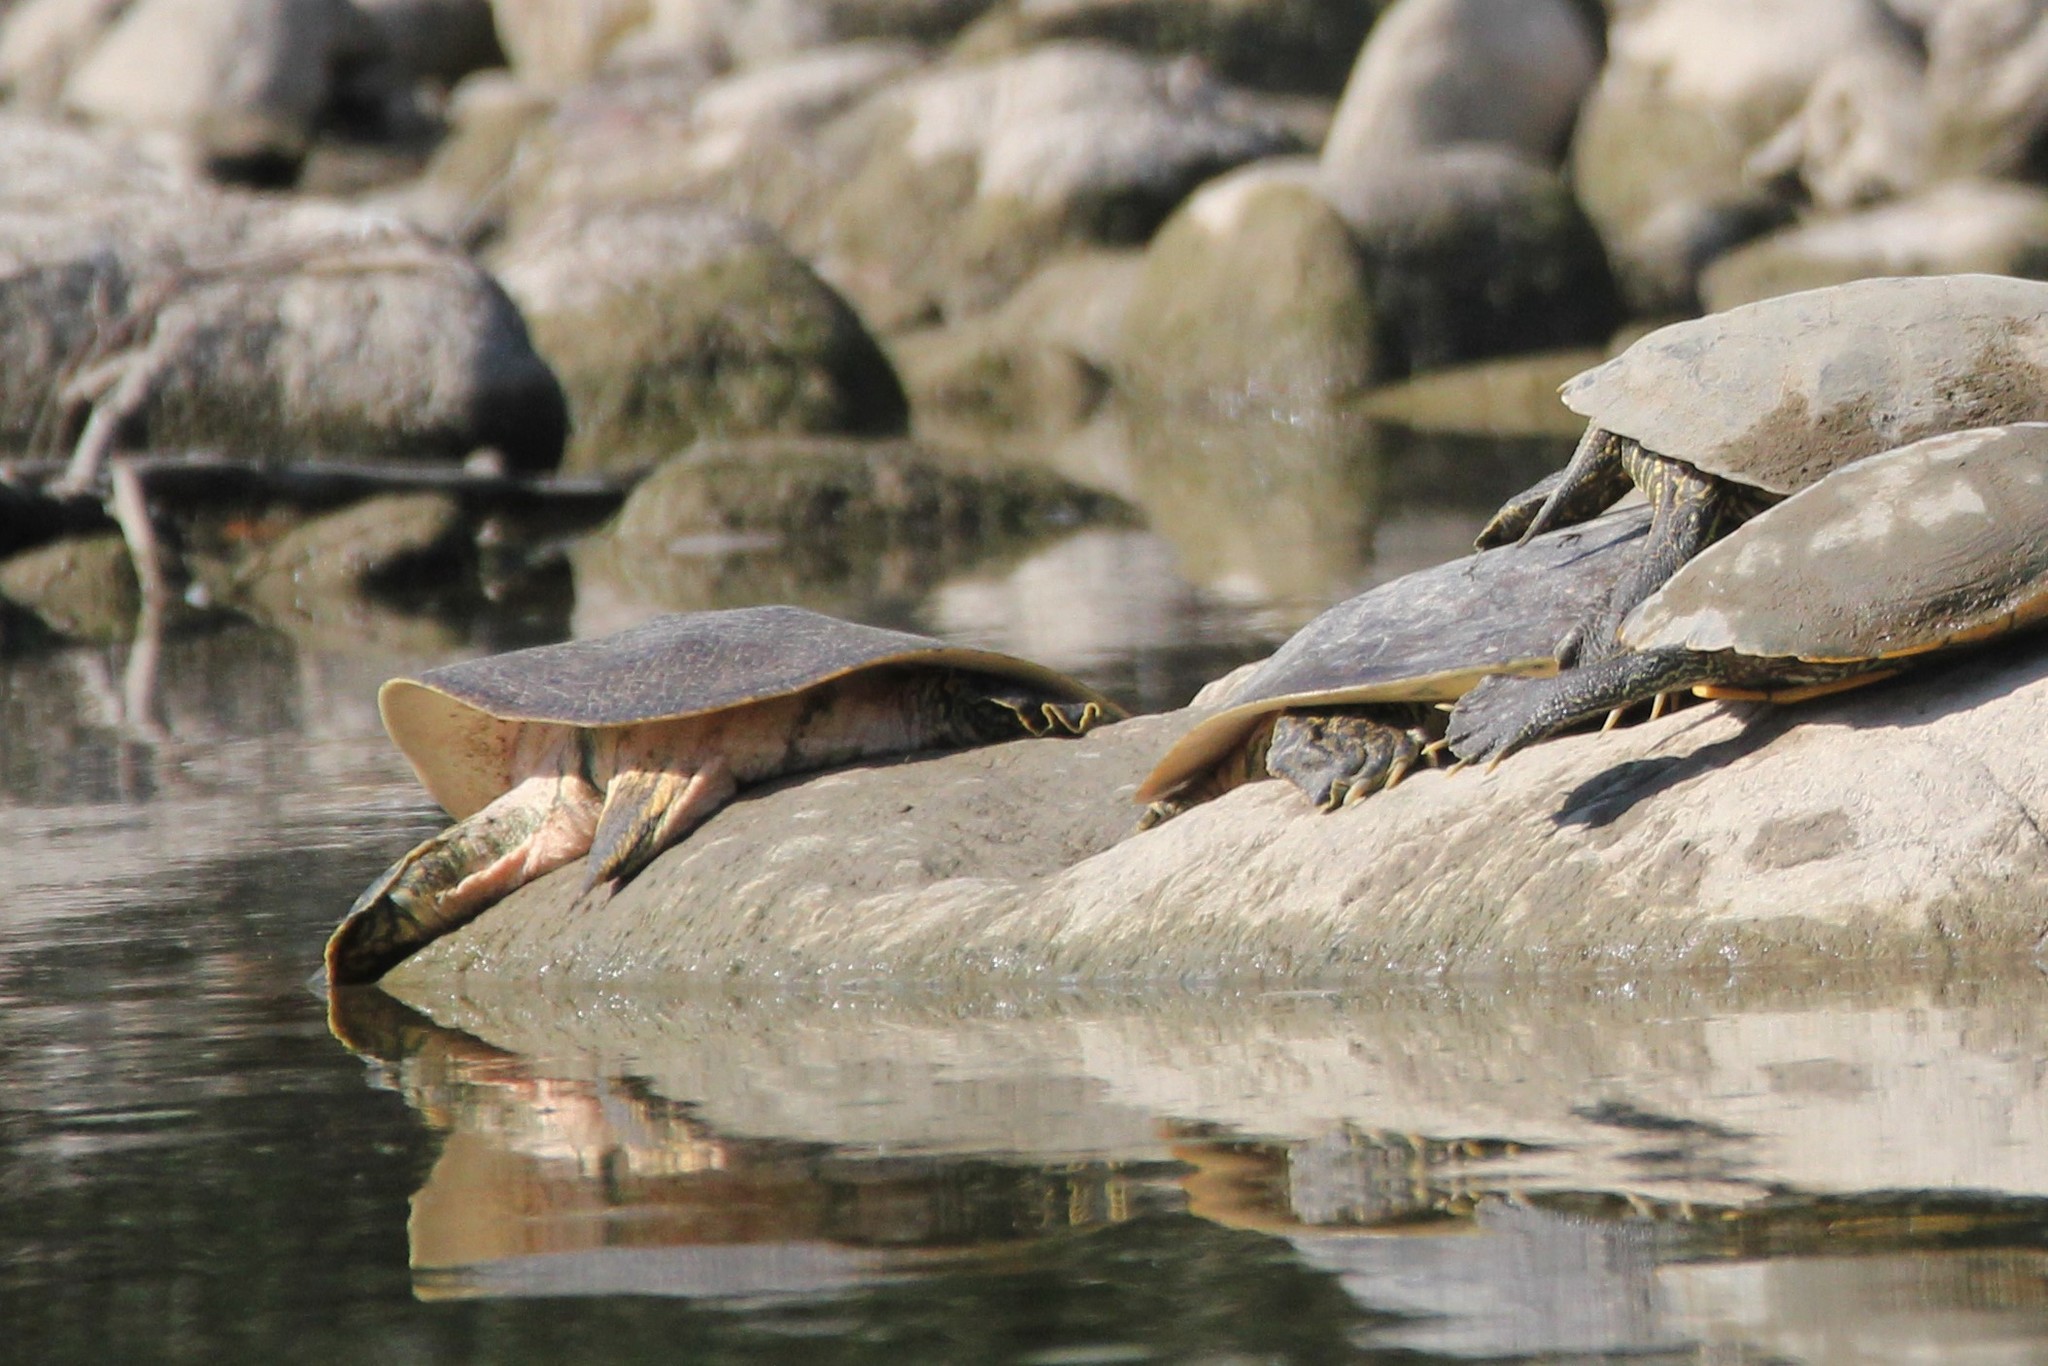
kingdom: Animalia
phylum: Chordata
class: Testudines
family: Trionychidae
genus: Apalone
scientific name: Apalone spinifera
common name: Spiny softshell turtle
